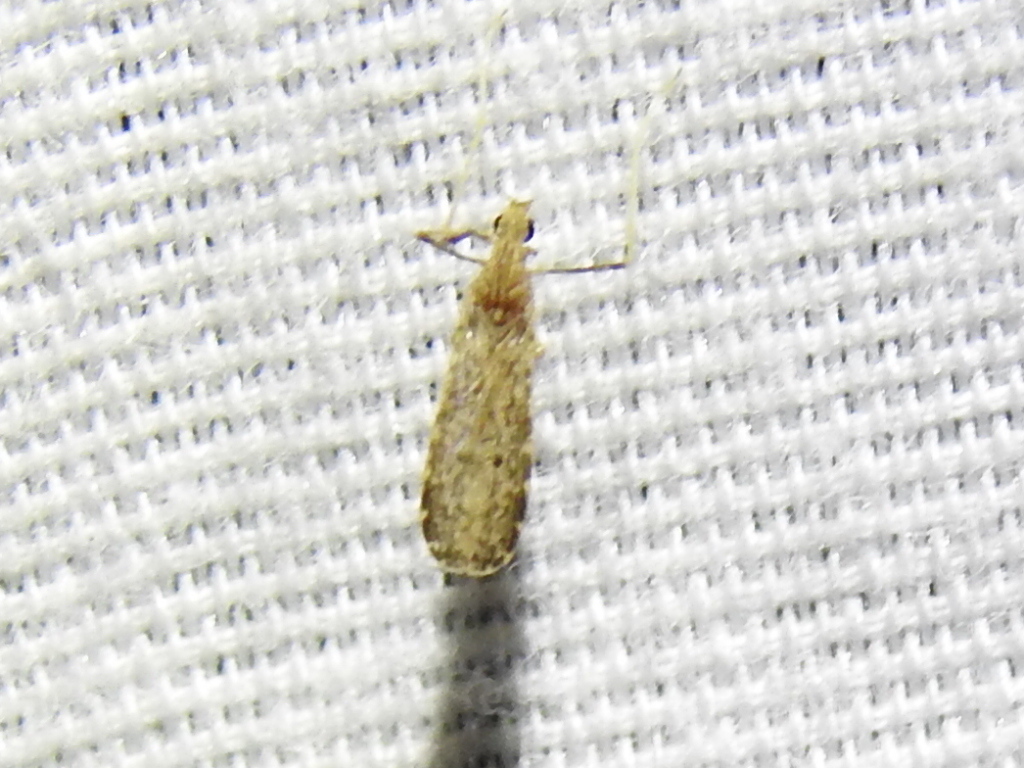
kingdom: Animalia
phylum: Arthropoda
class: Insecta
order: Diptera
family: Limoniidae
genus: Erioptera
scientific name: Erioptera tantilla
